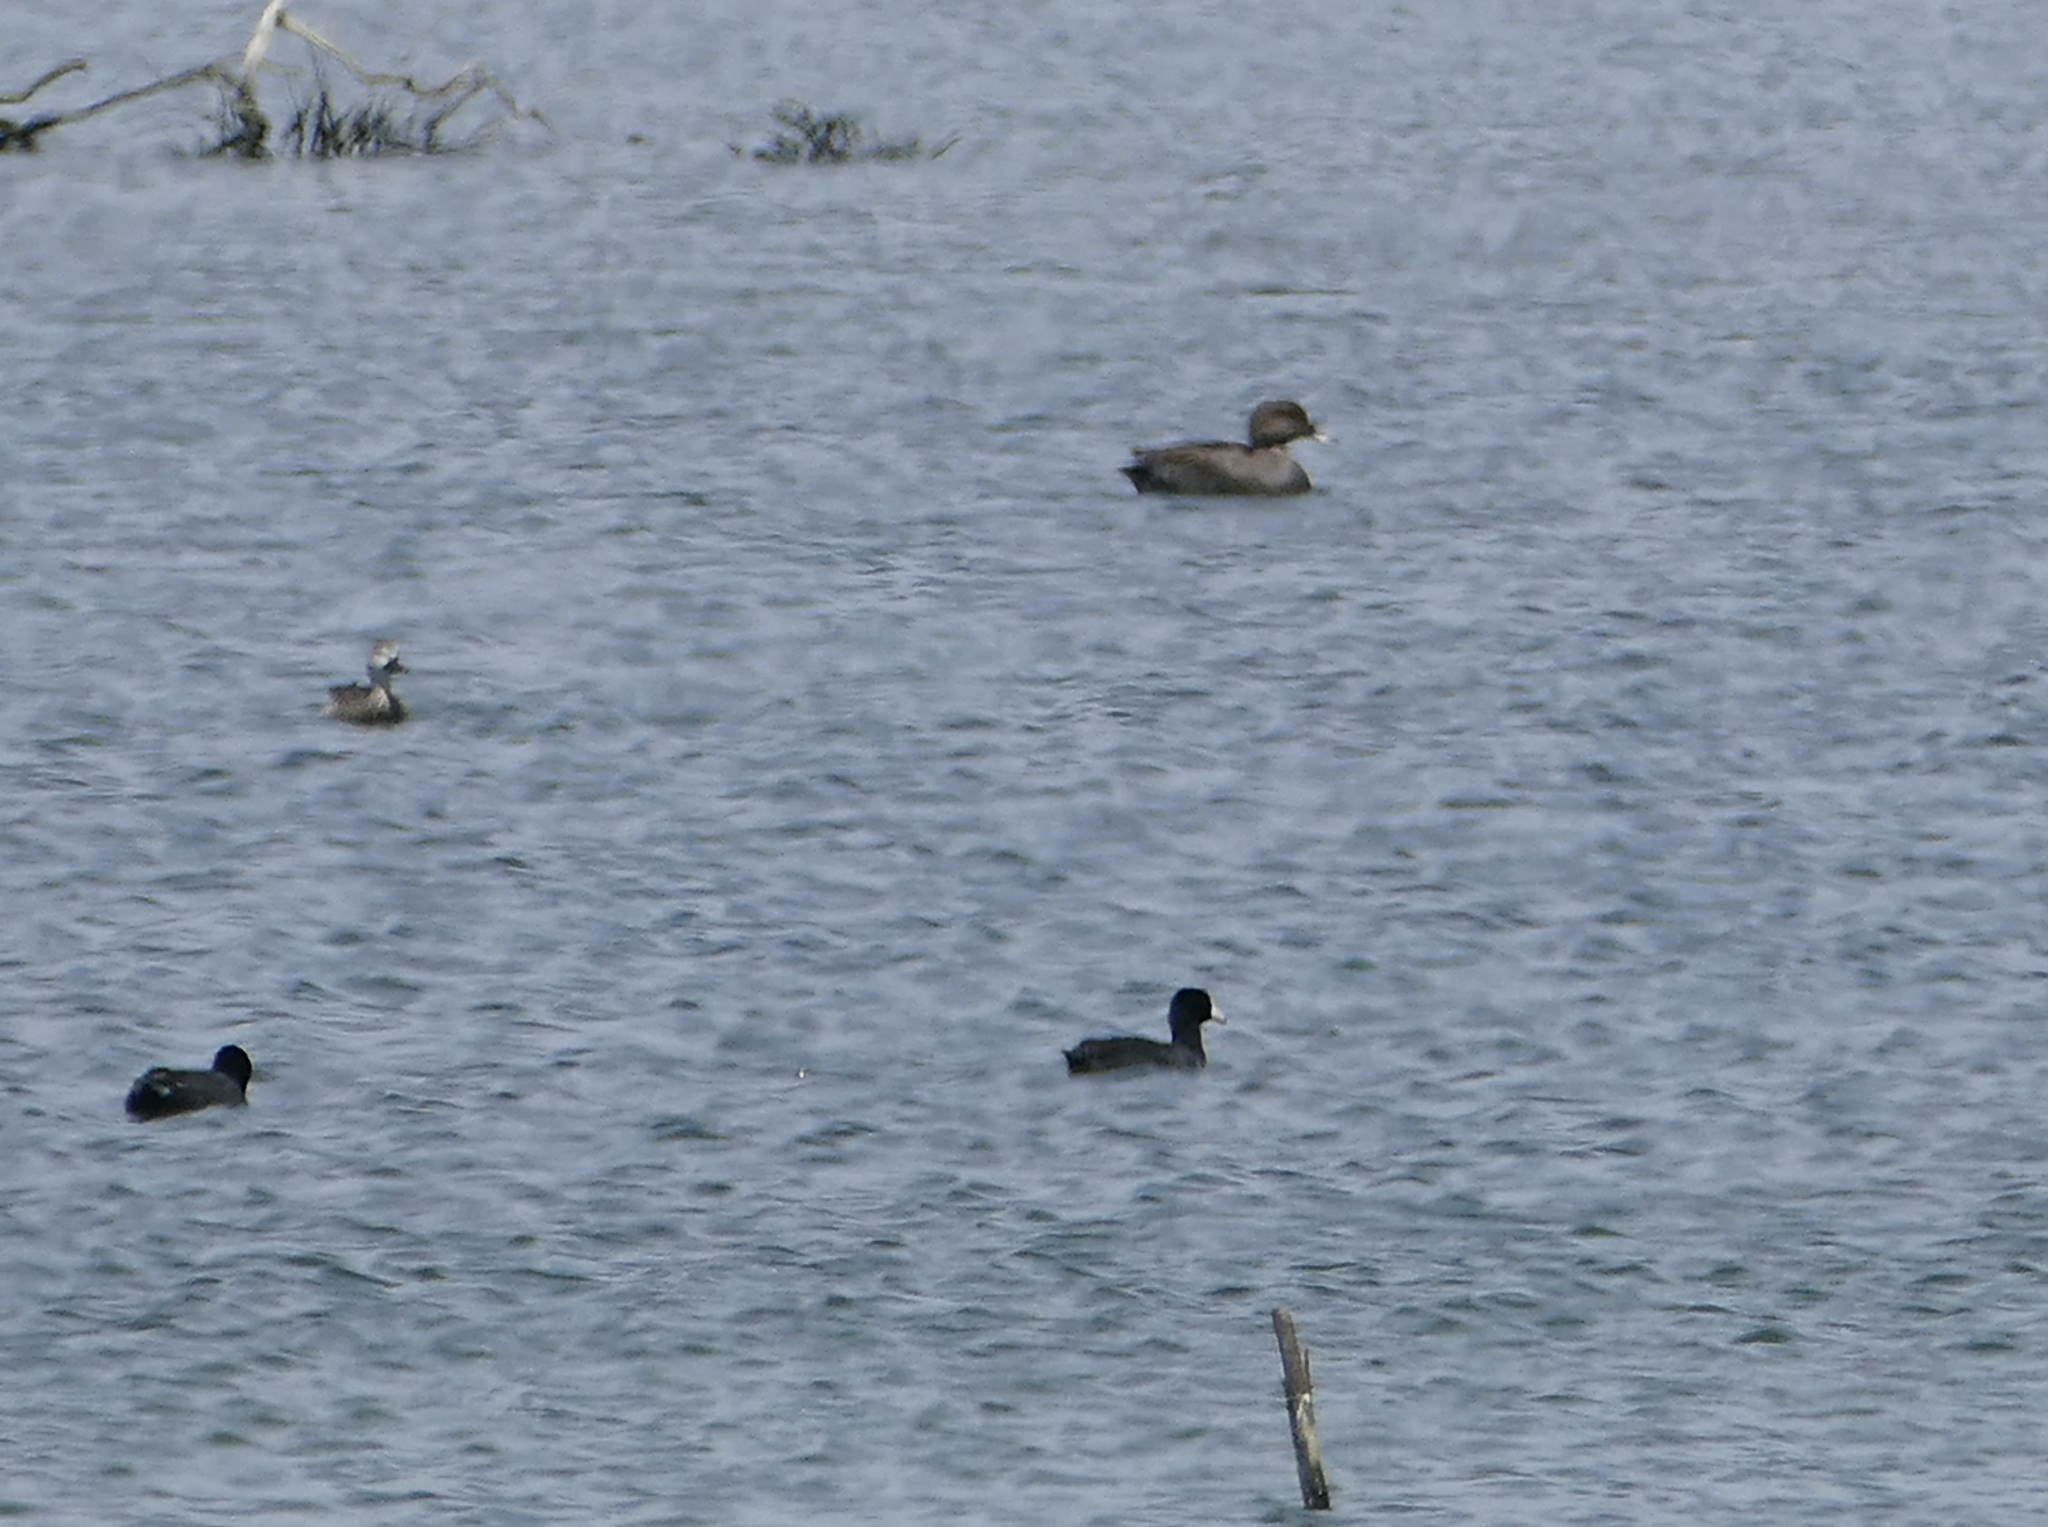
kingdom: Animalia
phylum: Chordata
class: Aves
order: Anseriformes
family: Anatidae
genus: Mareca
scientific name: Mareca strepera
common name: Gadwall
